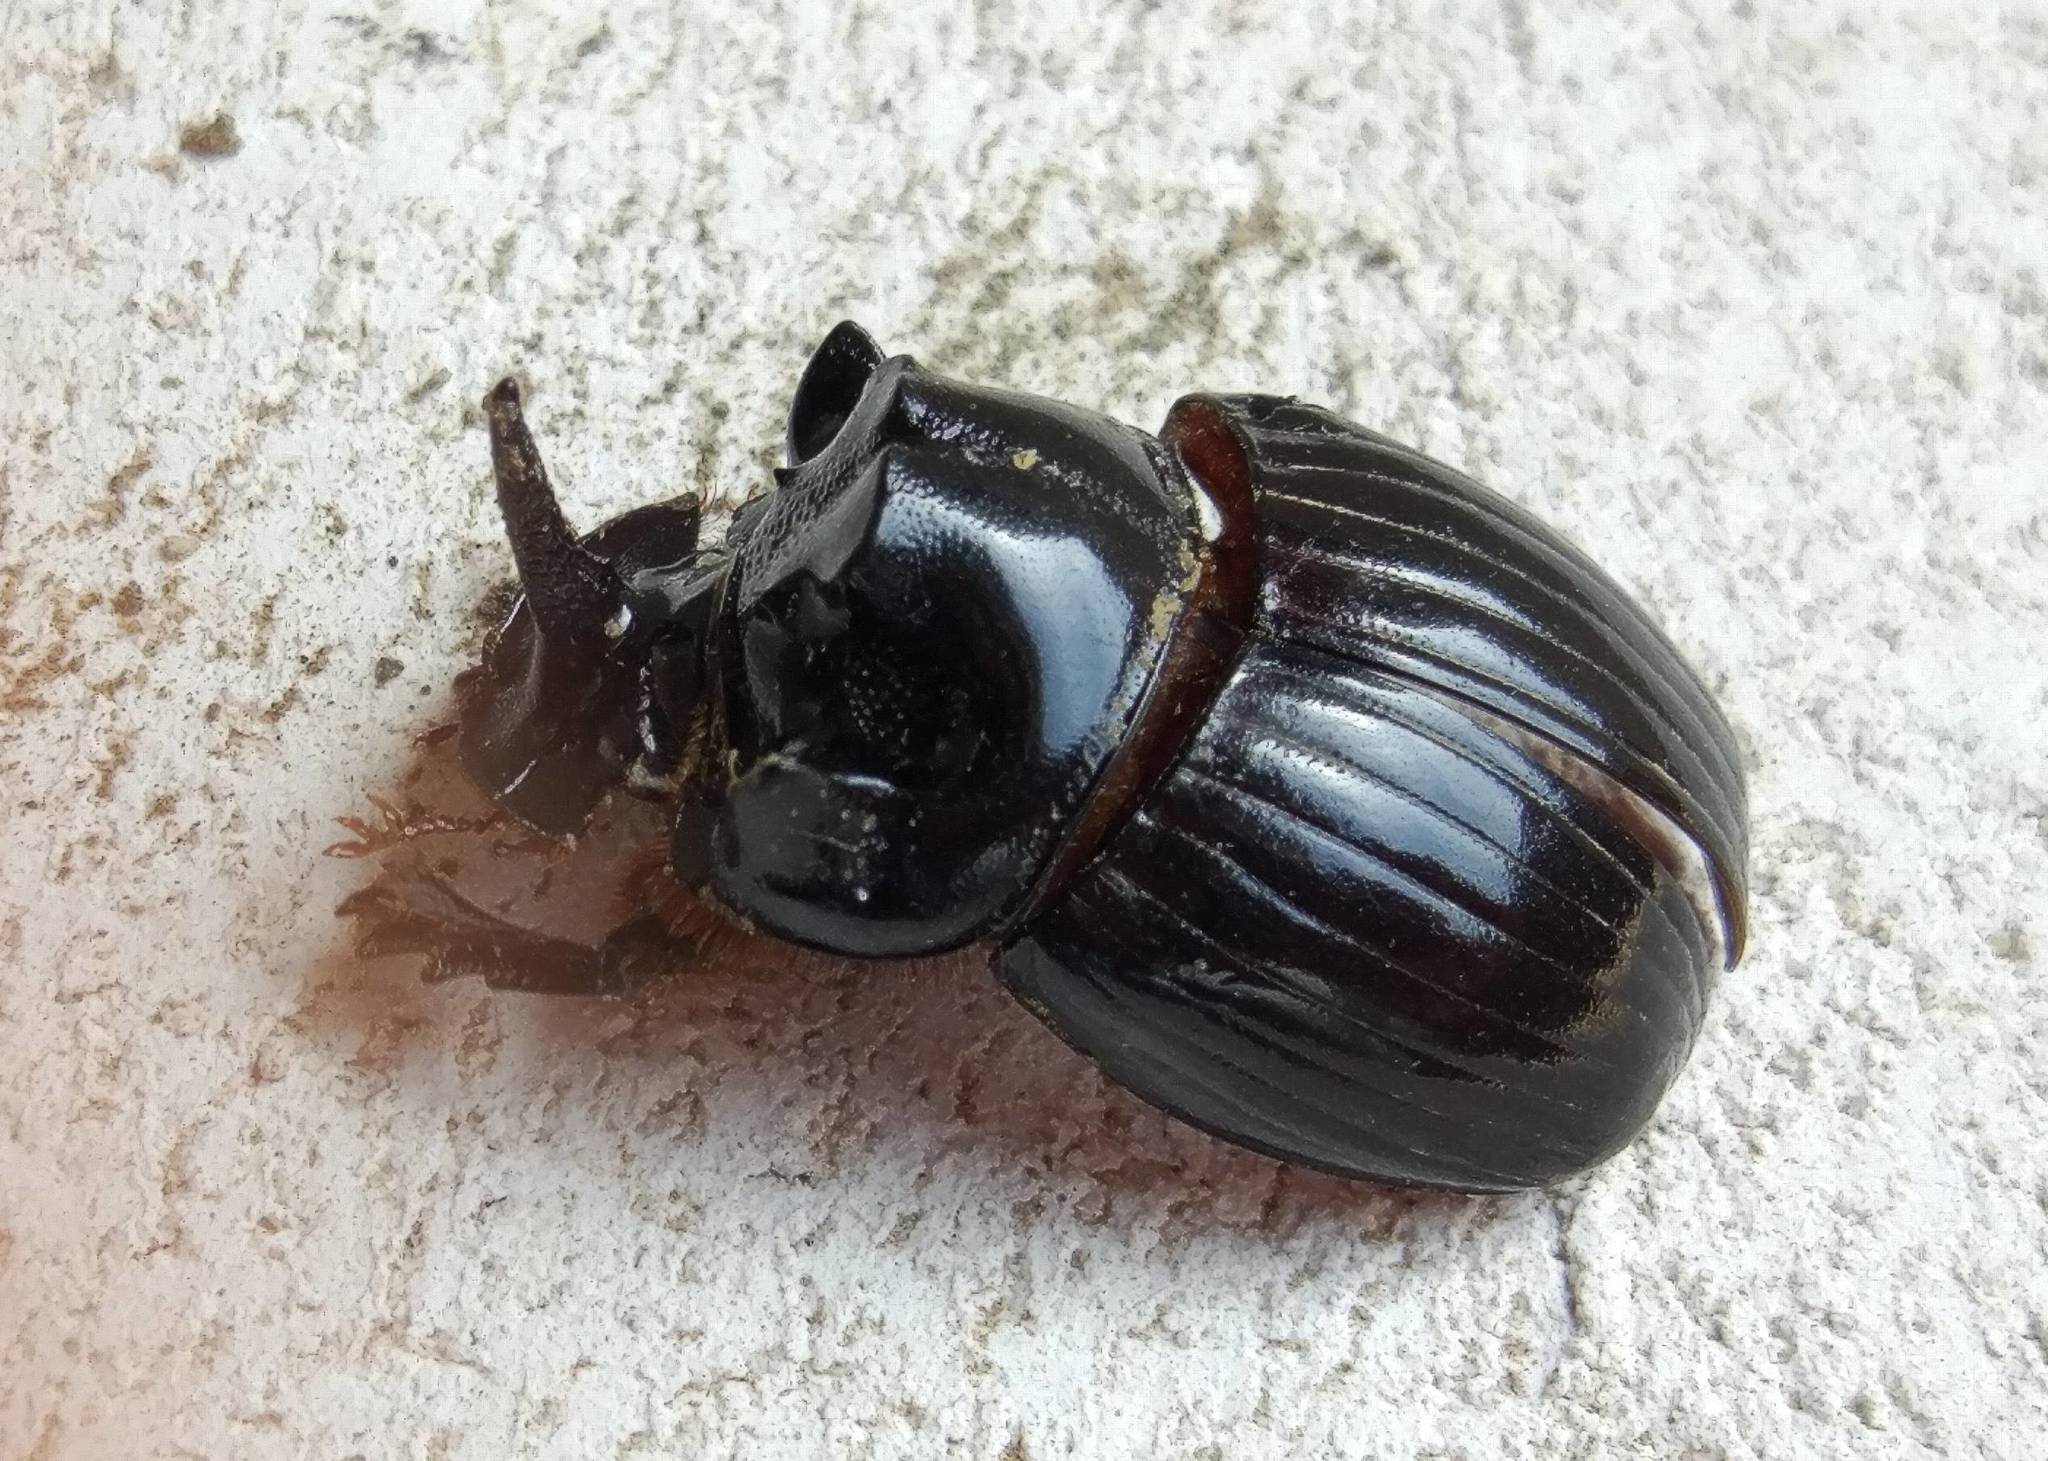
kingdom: Animalia
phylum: Arthropoda
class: Insecta
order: Coleoptera
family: Scarabaeidae
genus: Copris
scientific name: Copris lunaris
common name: Horned dung beetle
